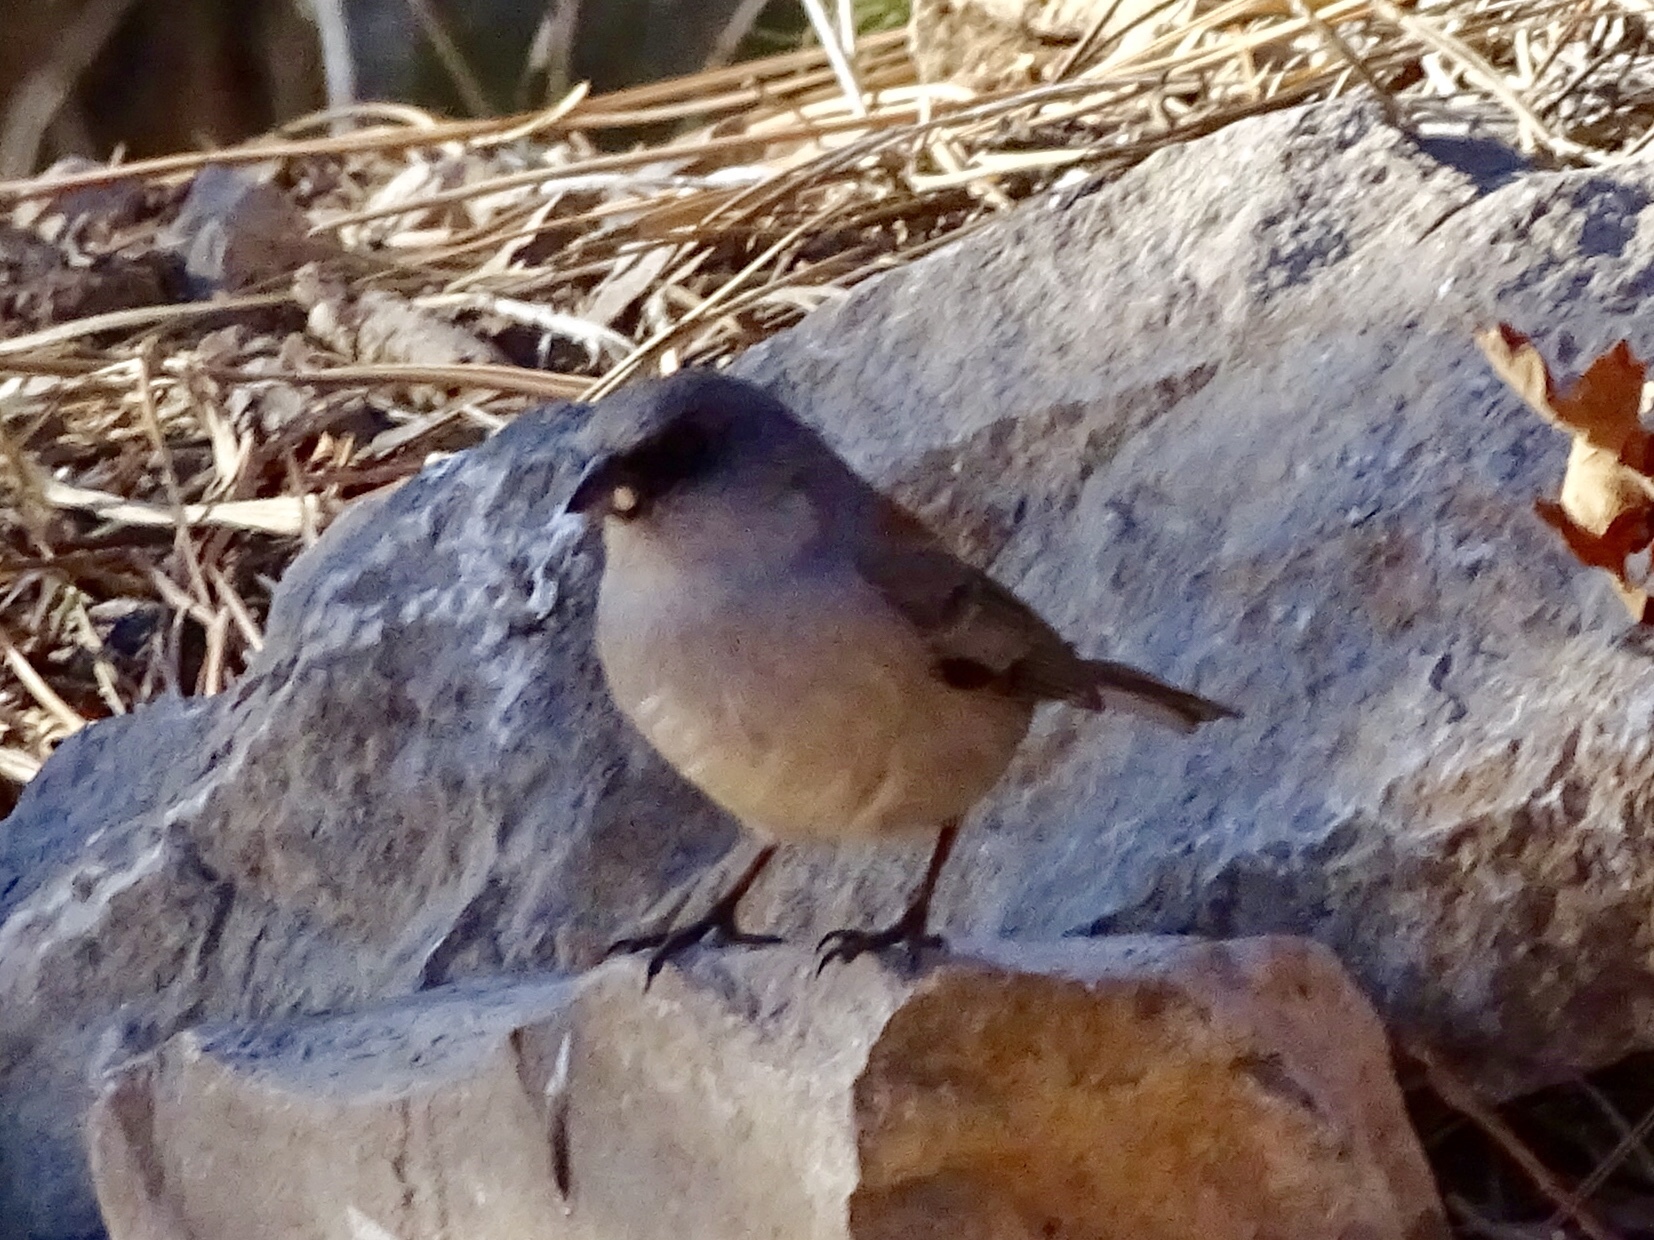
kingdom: Animalia
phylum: Chordata
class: Aves
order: Passeriformes
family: Passerellidae
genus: Junco
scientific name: Junco hyemalis
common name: Dark-eyed junco
